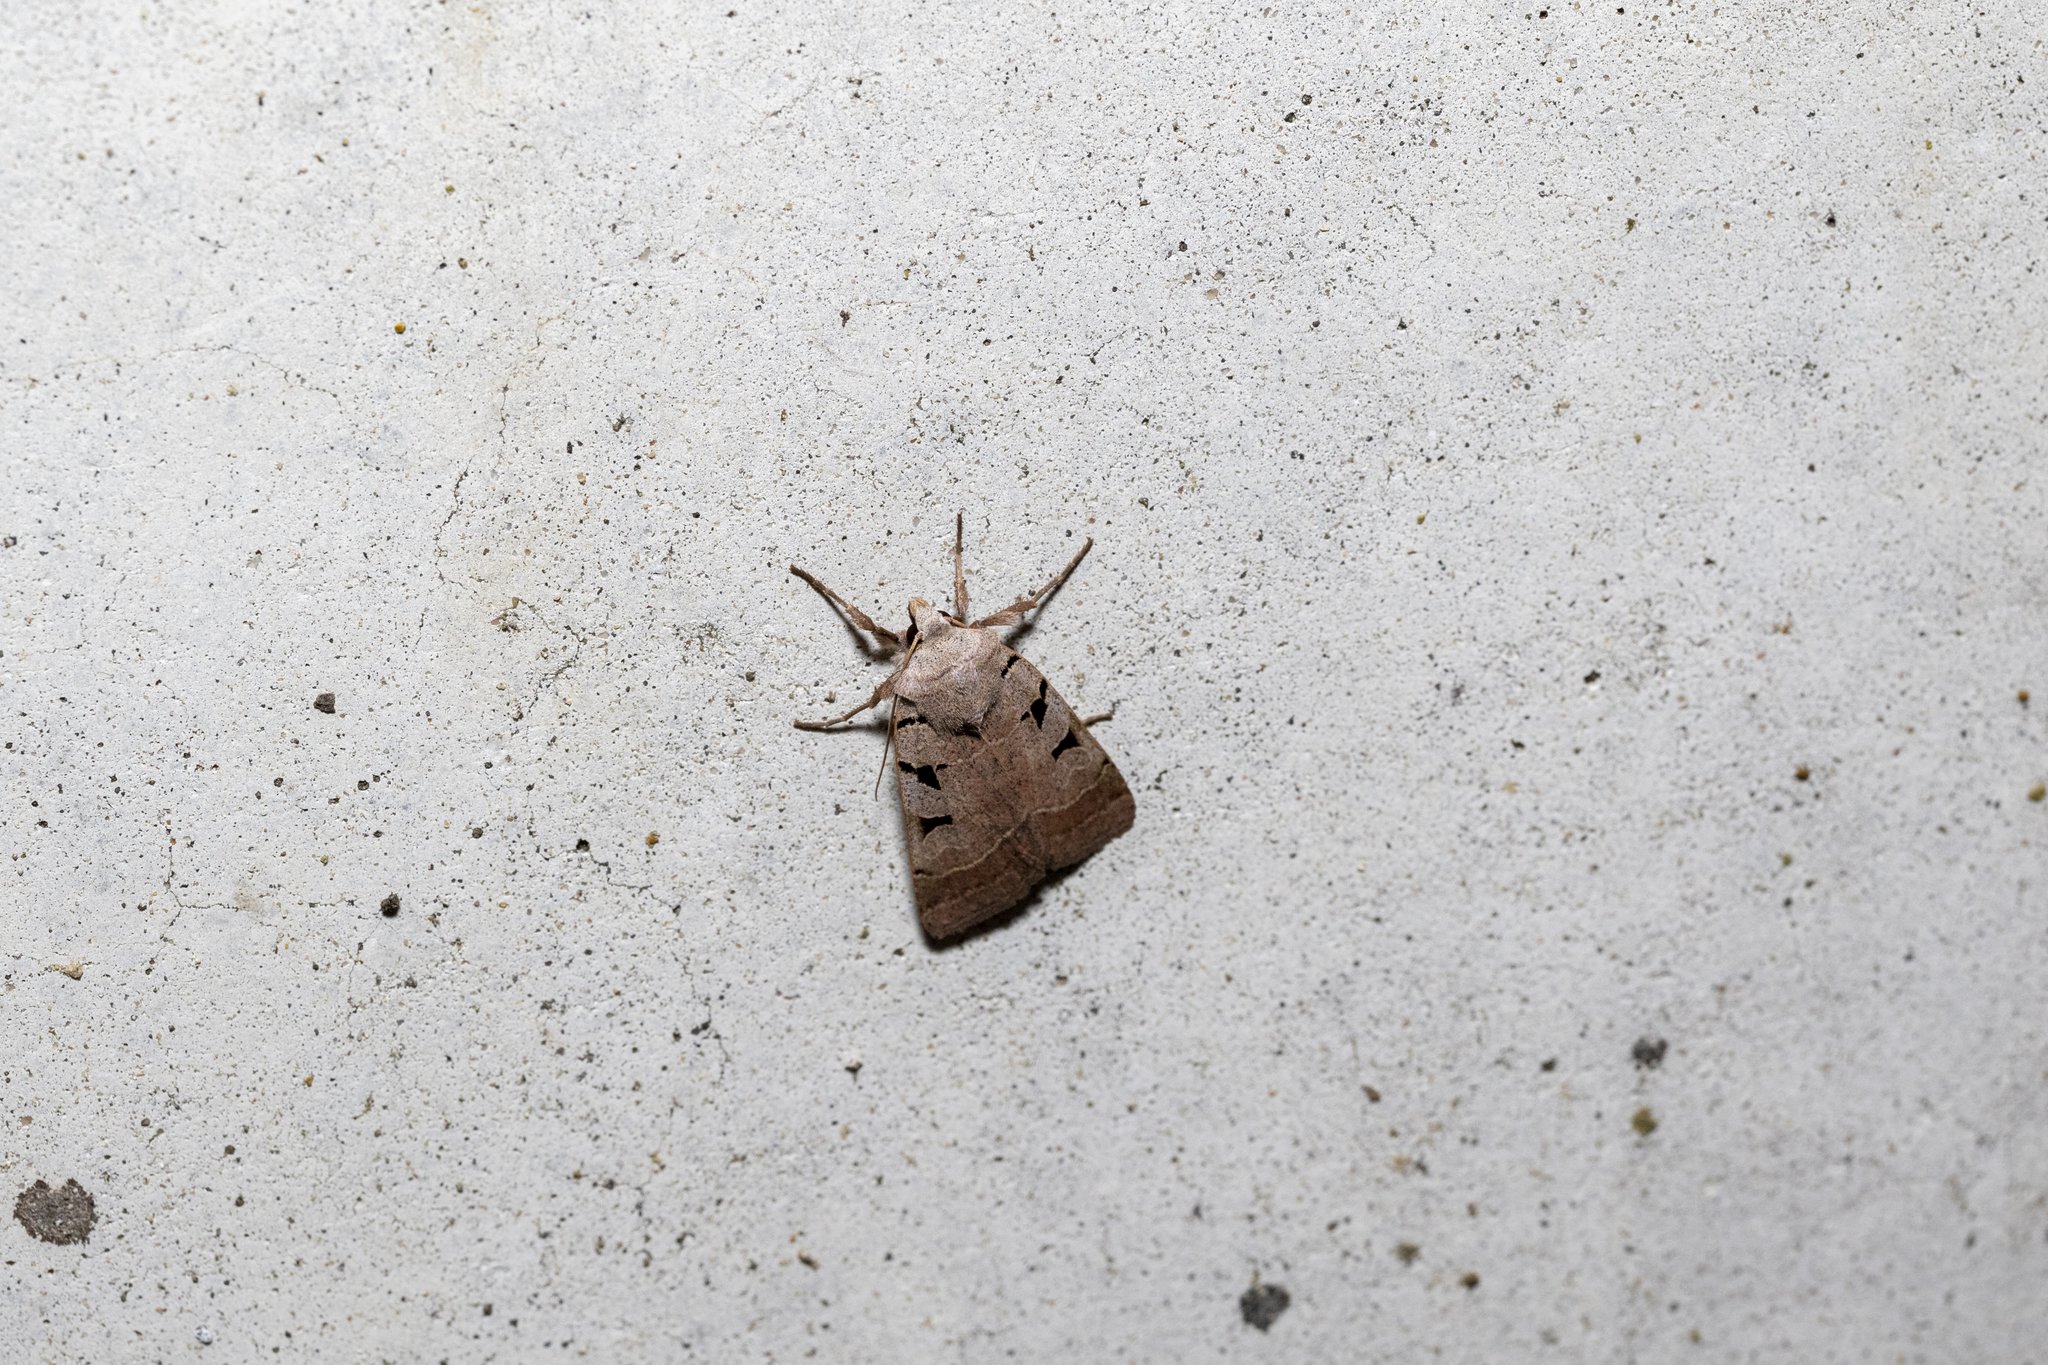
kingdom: Animalia
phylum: Arthropoda
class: Insecta
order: Lepidoptera
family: Noctuidae
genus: Eugnorisma
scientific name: Eugnorisma glareosa
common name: Autumnal rustic
